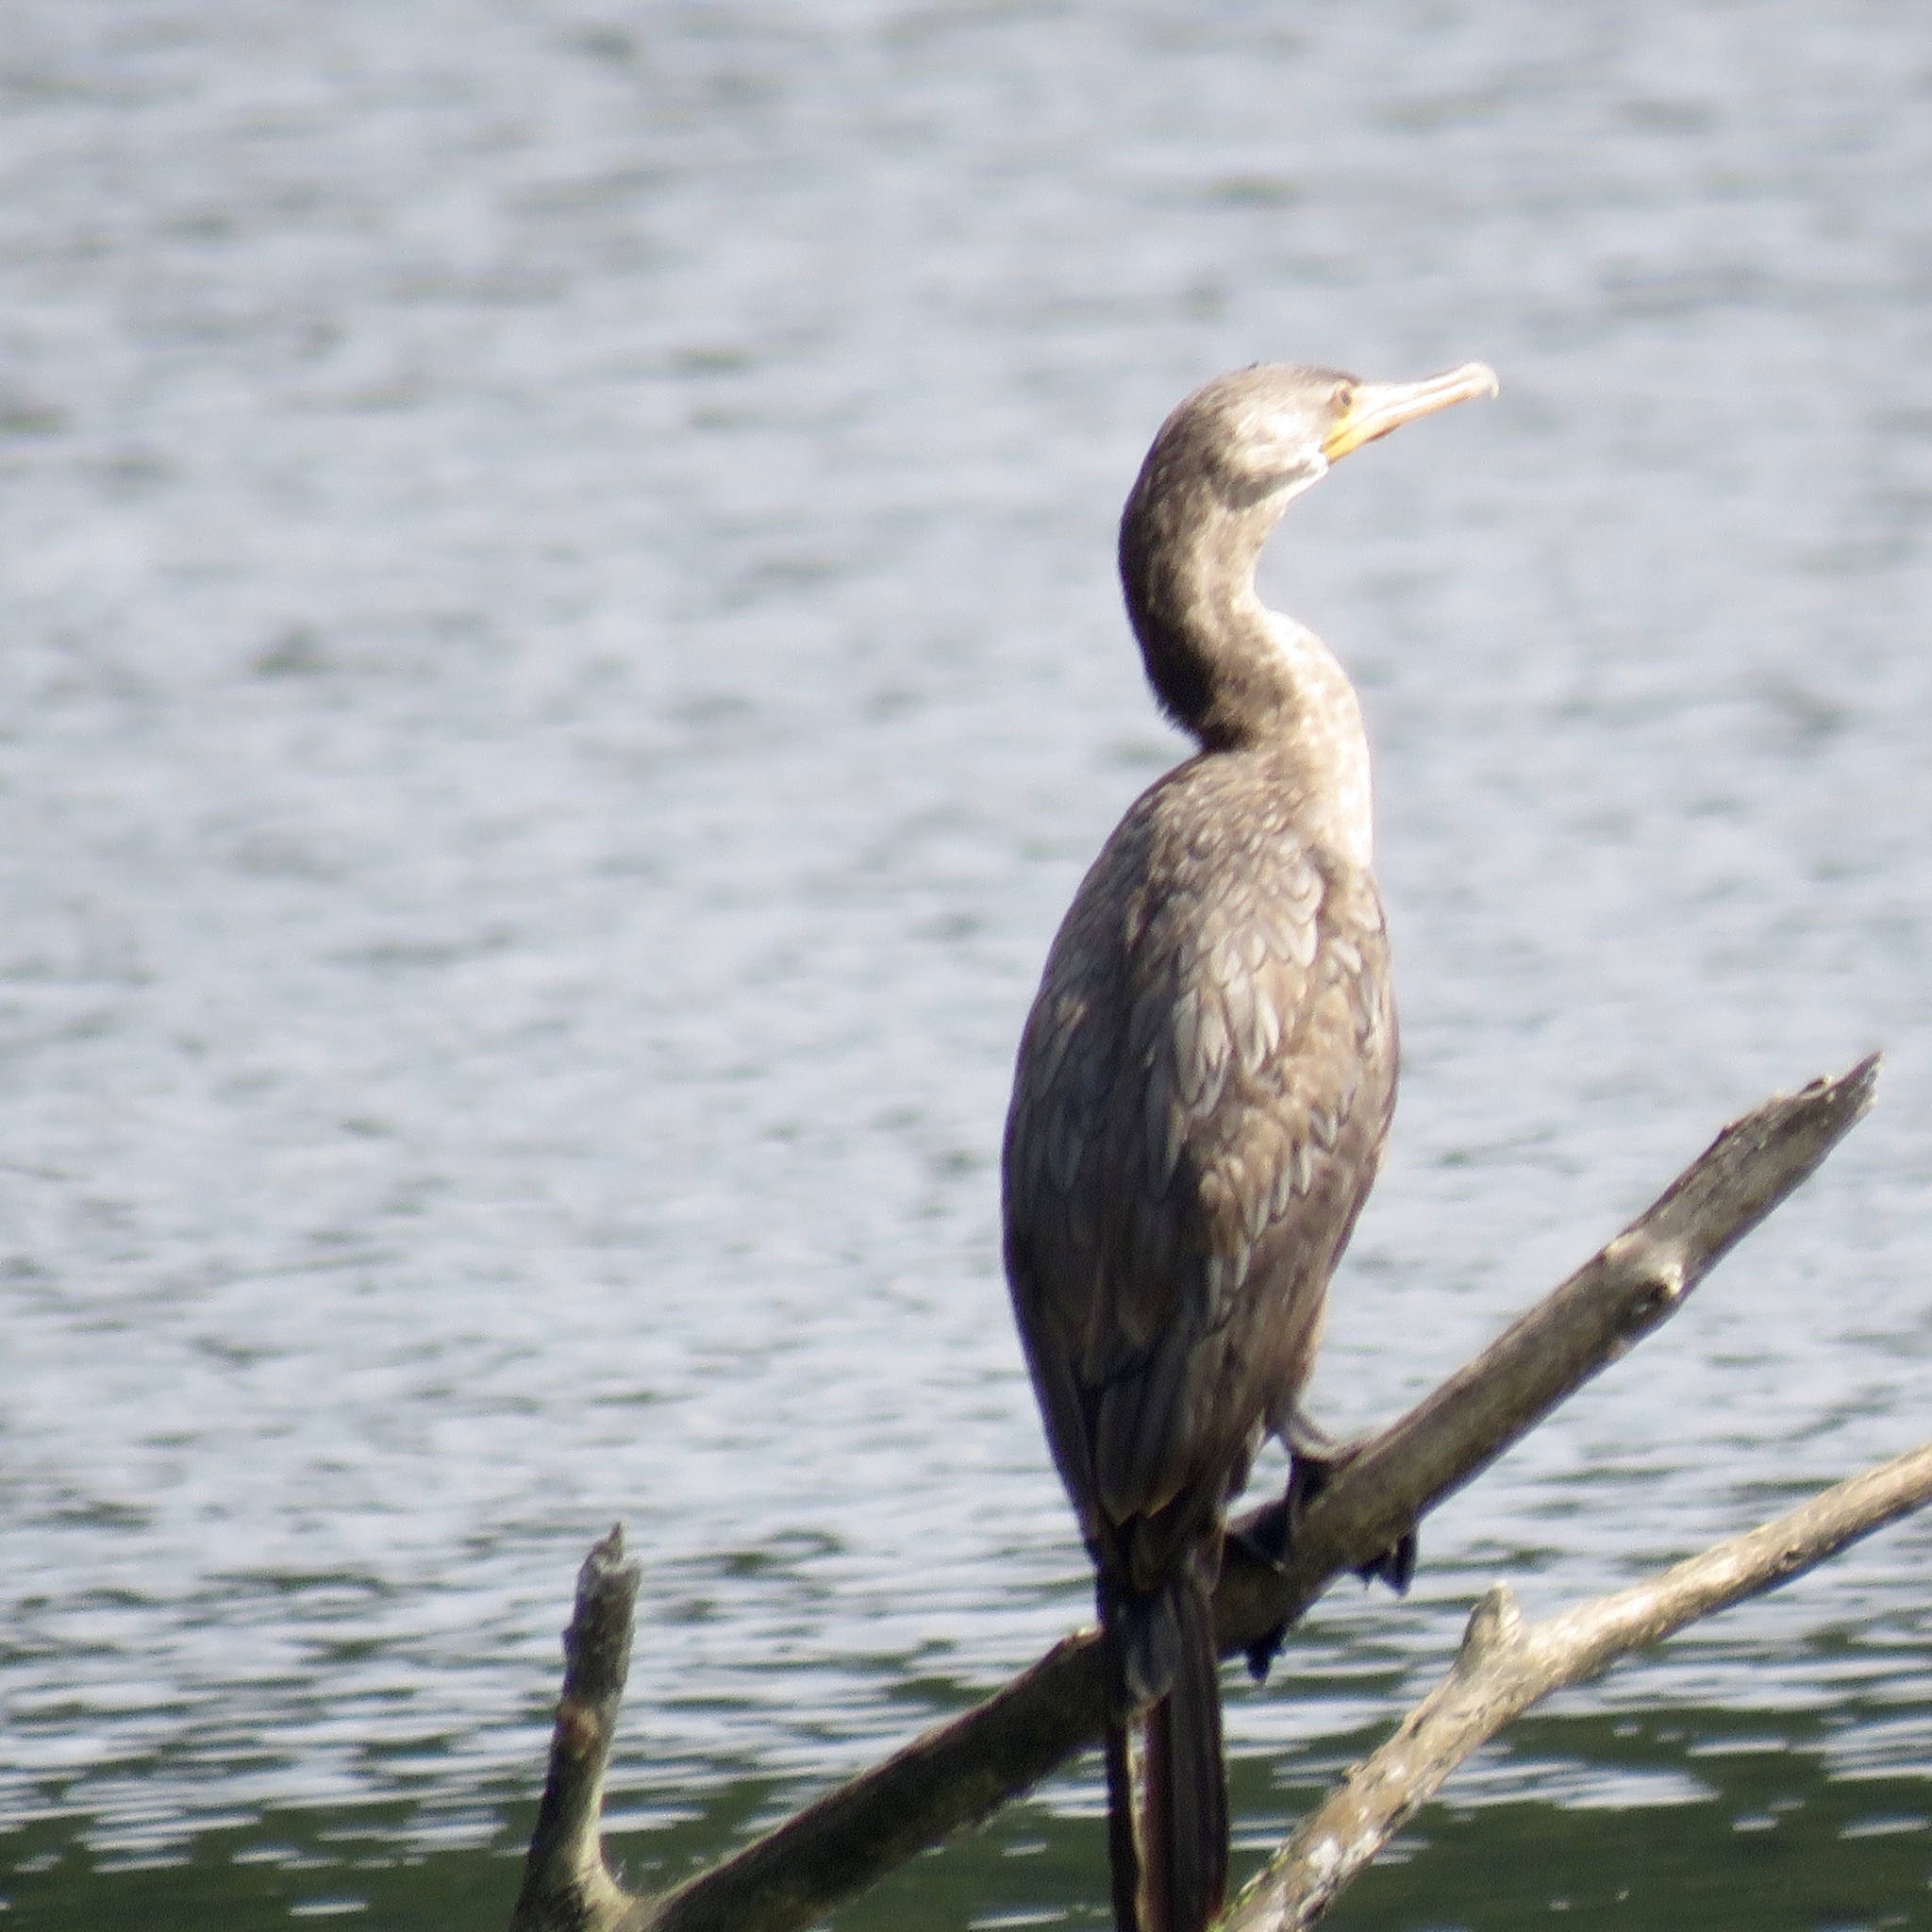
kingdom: Animalia
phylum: Chordata
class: Aves
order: Suliformes
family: Phalacrocoracidae
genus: Phalacrocorax
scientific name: Phalacrocorax brasilianus
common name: Neotropic cormorant
